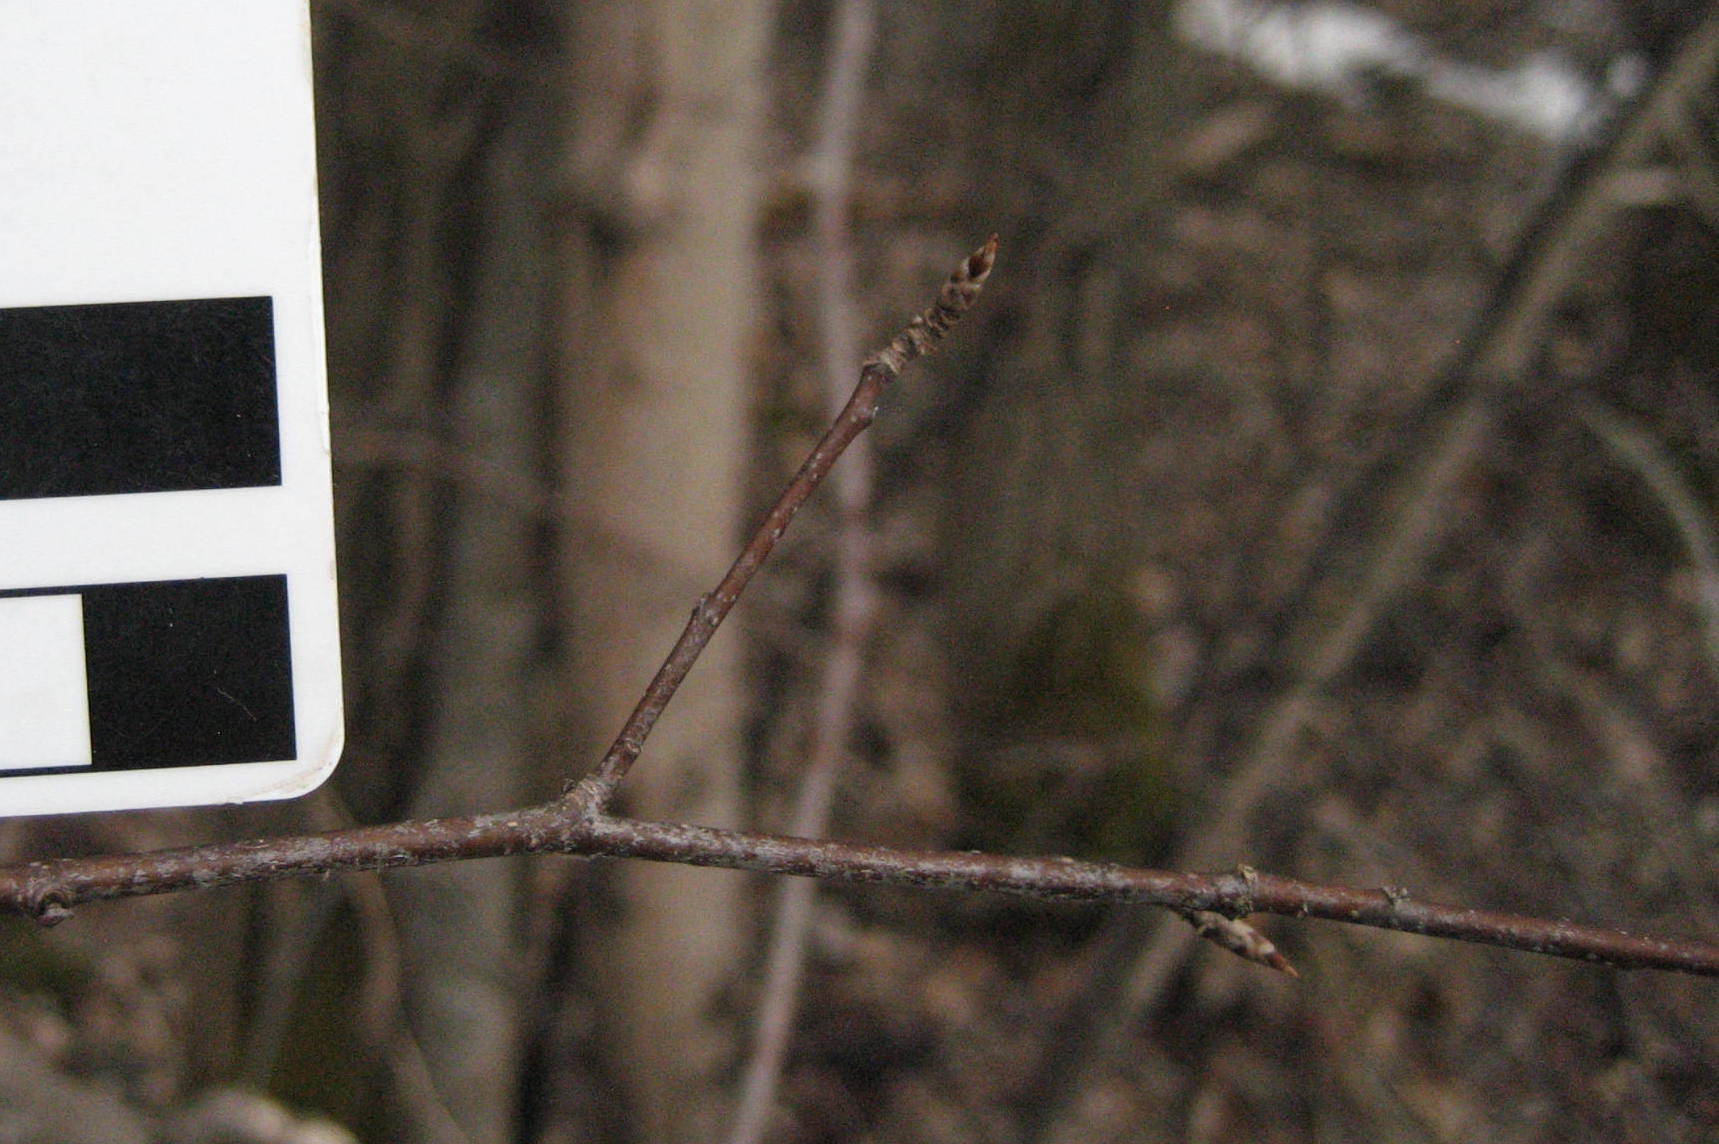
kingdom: Plantae
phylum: Tracheophyta
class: Magnoliopsida
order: Rosales
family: Rosaceae
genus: Prunus
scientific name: Prunus virginiana
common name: Chokecherry
